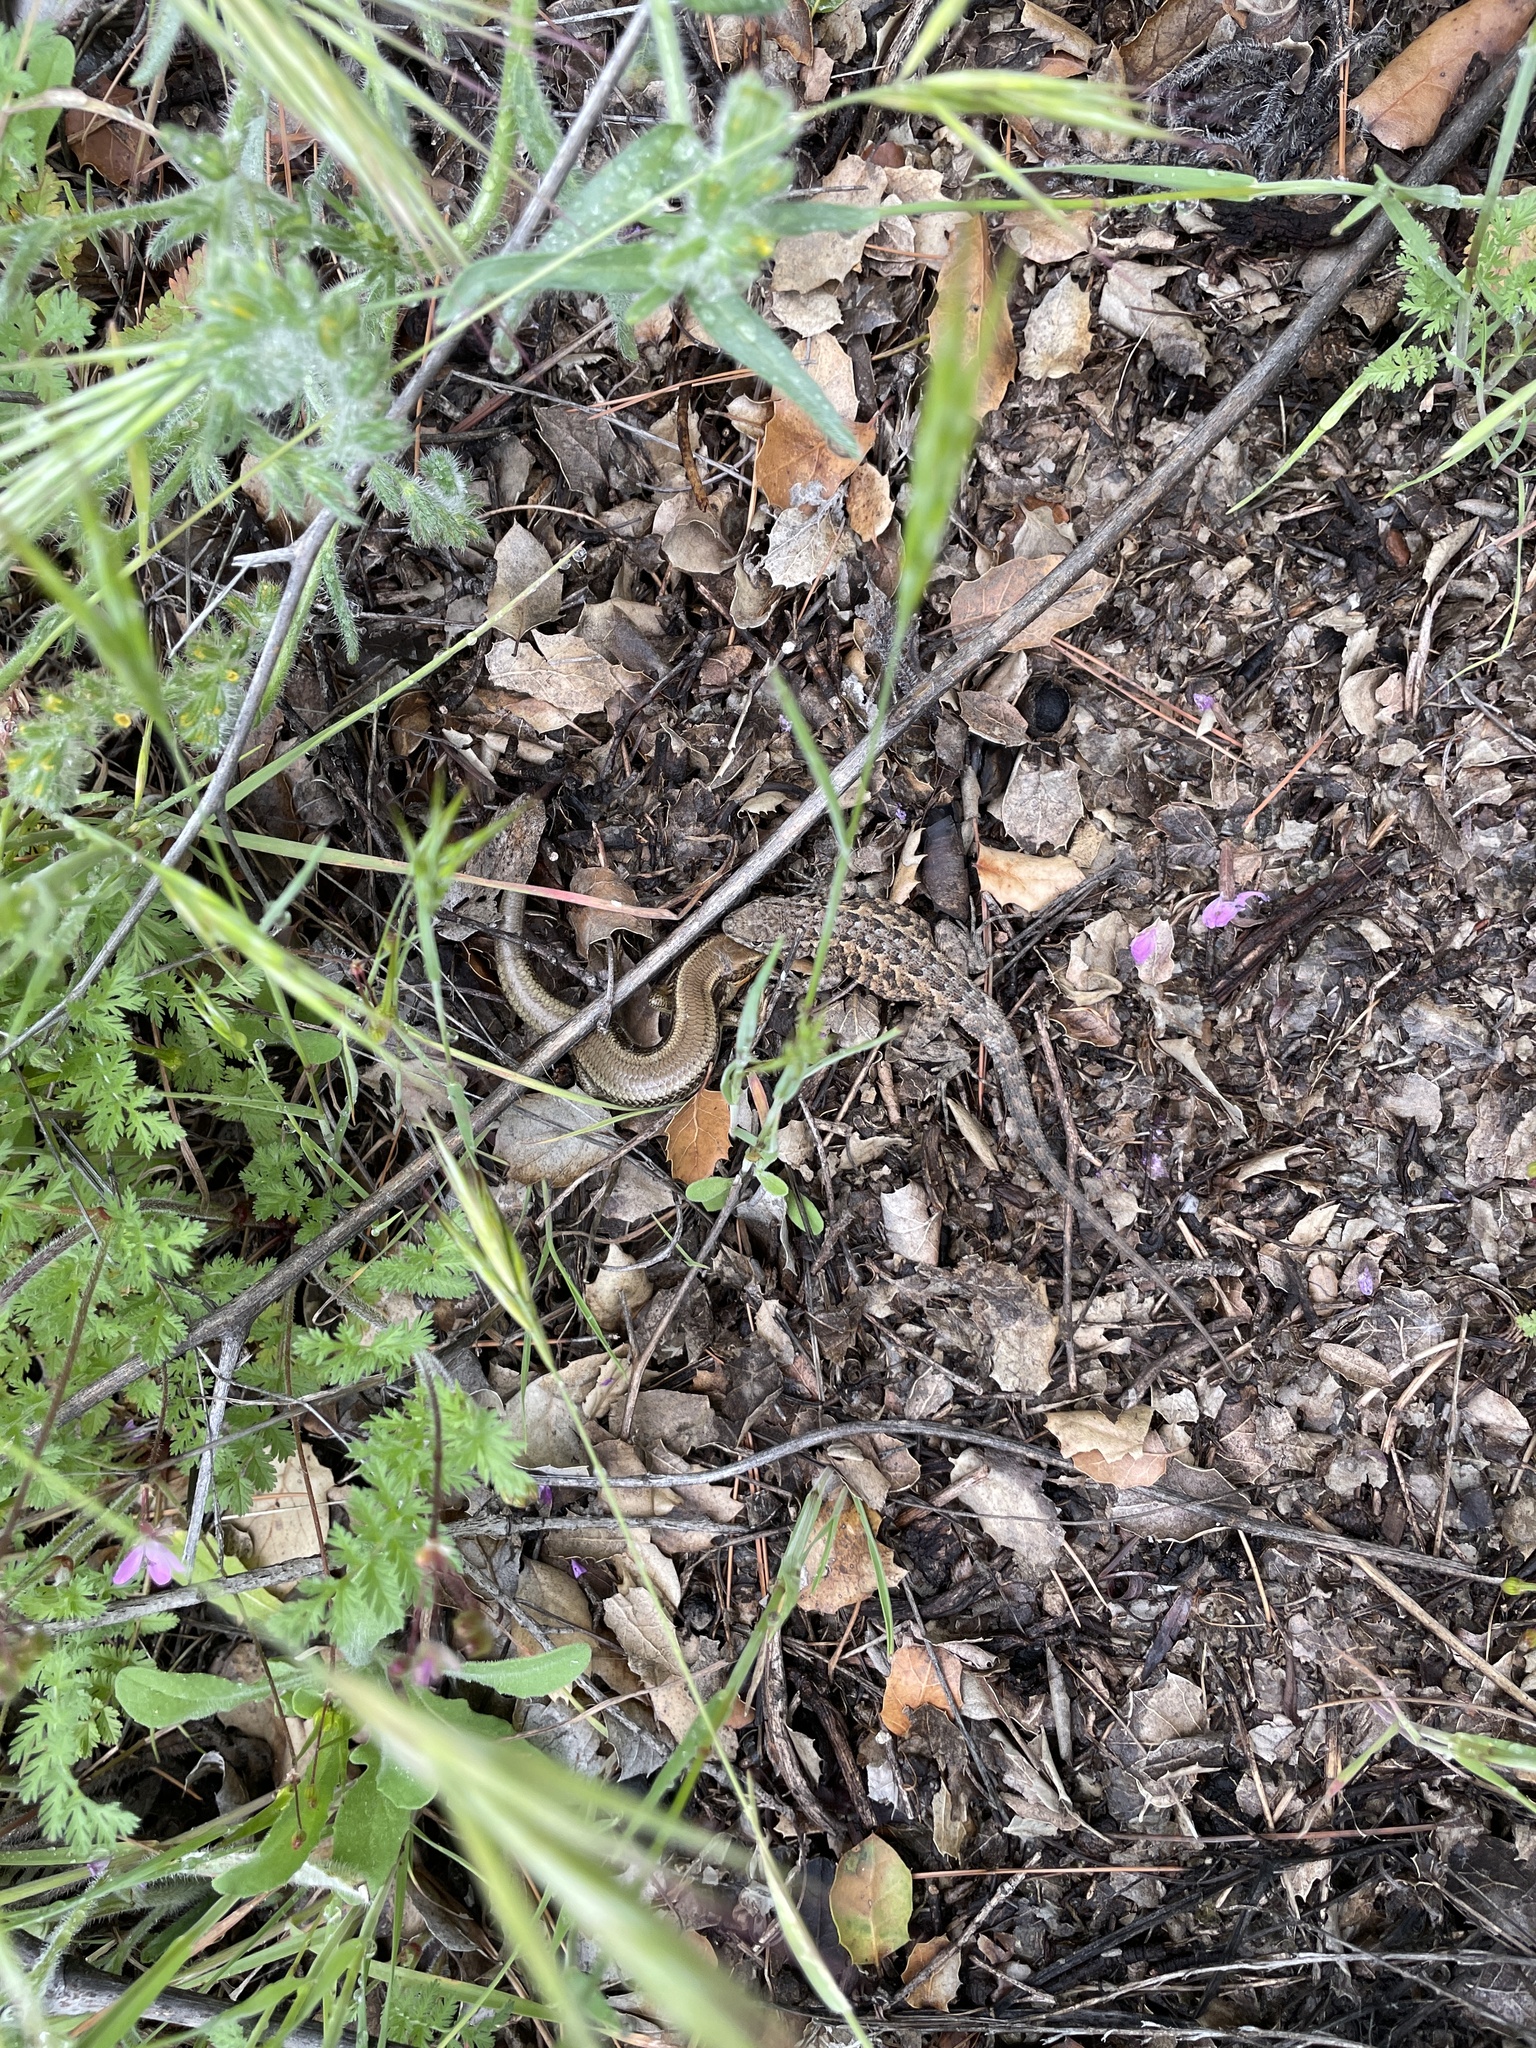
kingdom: Animalia
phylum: Chordata
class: Squamata
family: Scincidae
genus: Plestiodon
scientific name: Plestiodon skiltonianus
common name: Coronado island skink [interparietalis]
